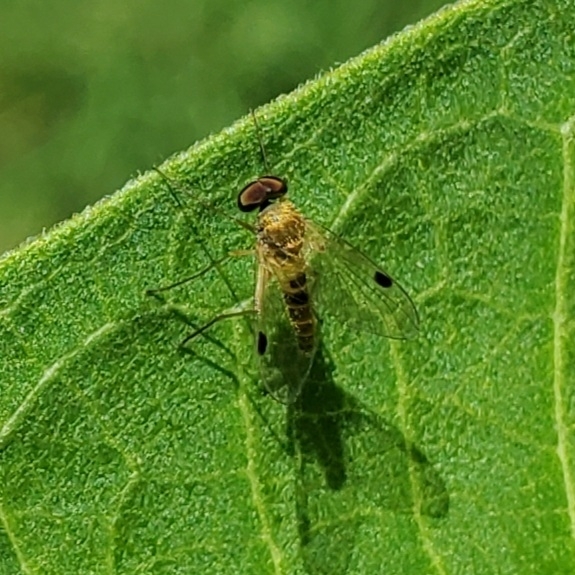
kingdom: Animalia
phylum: Arthropoda
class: Insecta
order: Diptera
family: Rhagionidae
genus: Chrysopilus
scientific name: Chrysopilus modestus
